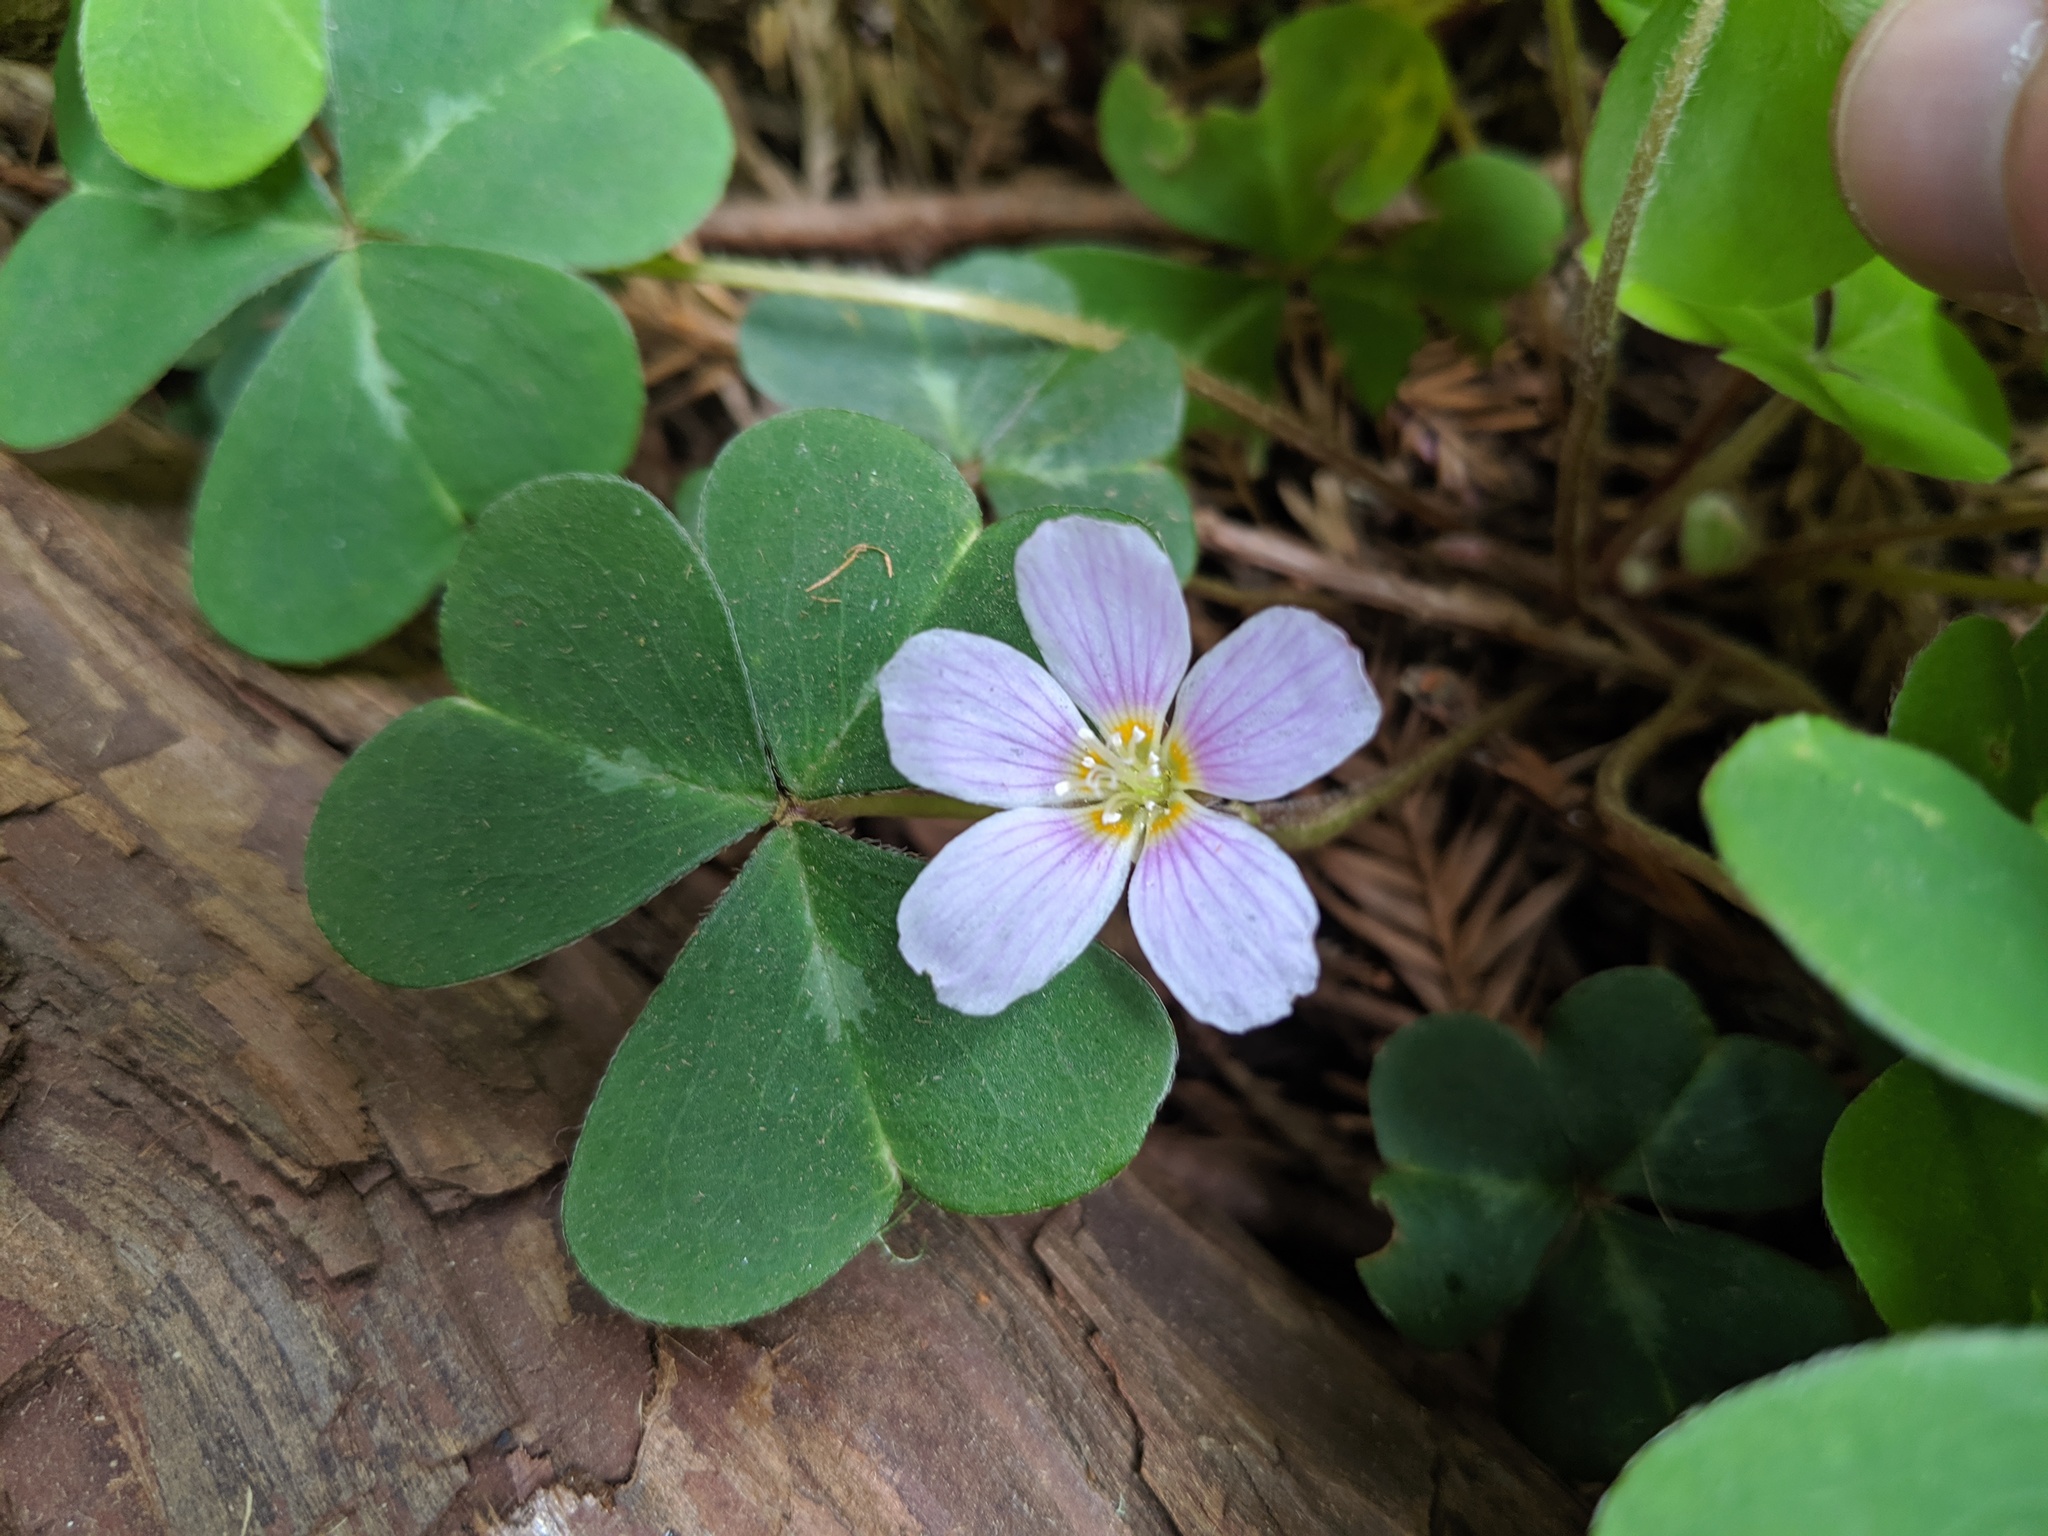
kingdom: Plantae
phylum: Tracheophyta
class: Magnoliopsida
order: Oxalidales
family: Oxalidaceae
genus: Oxalis
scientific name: Oxalis oregana
